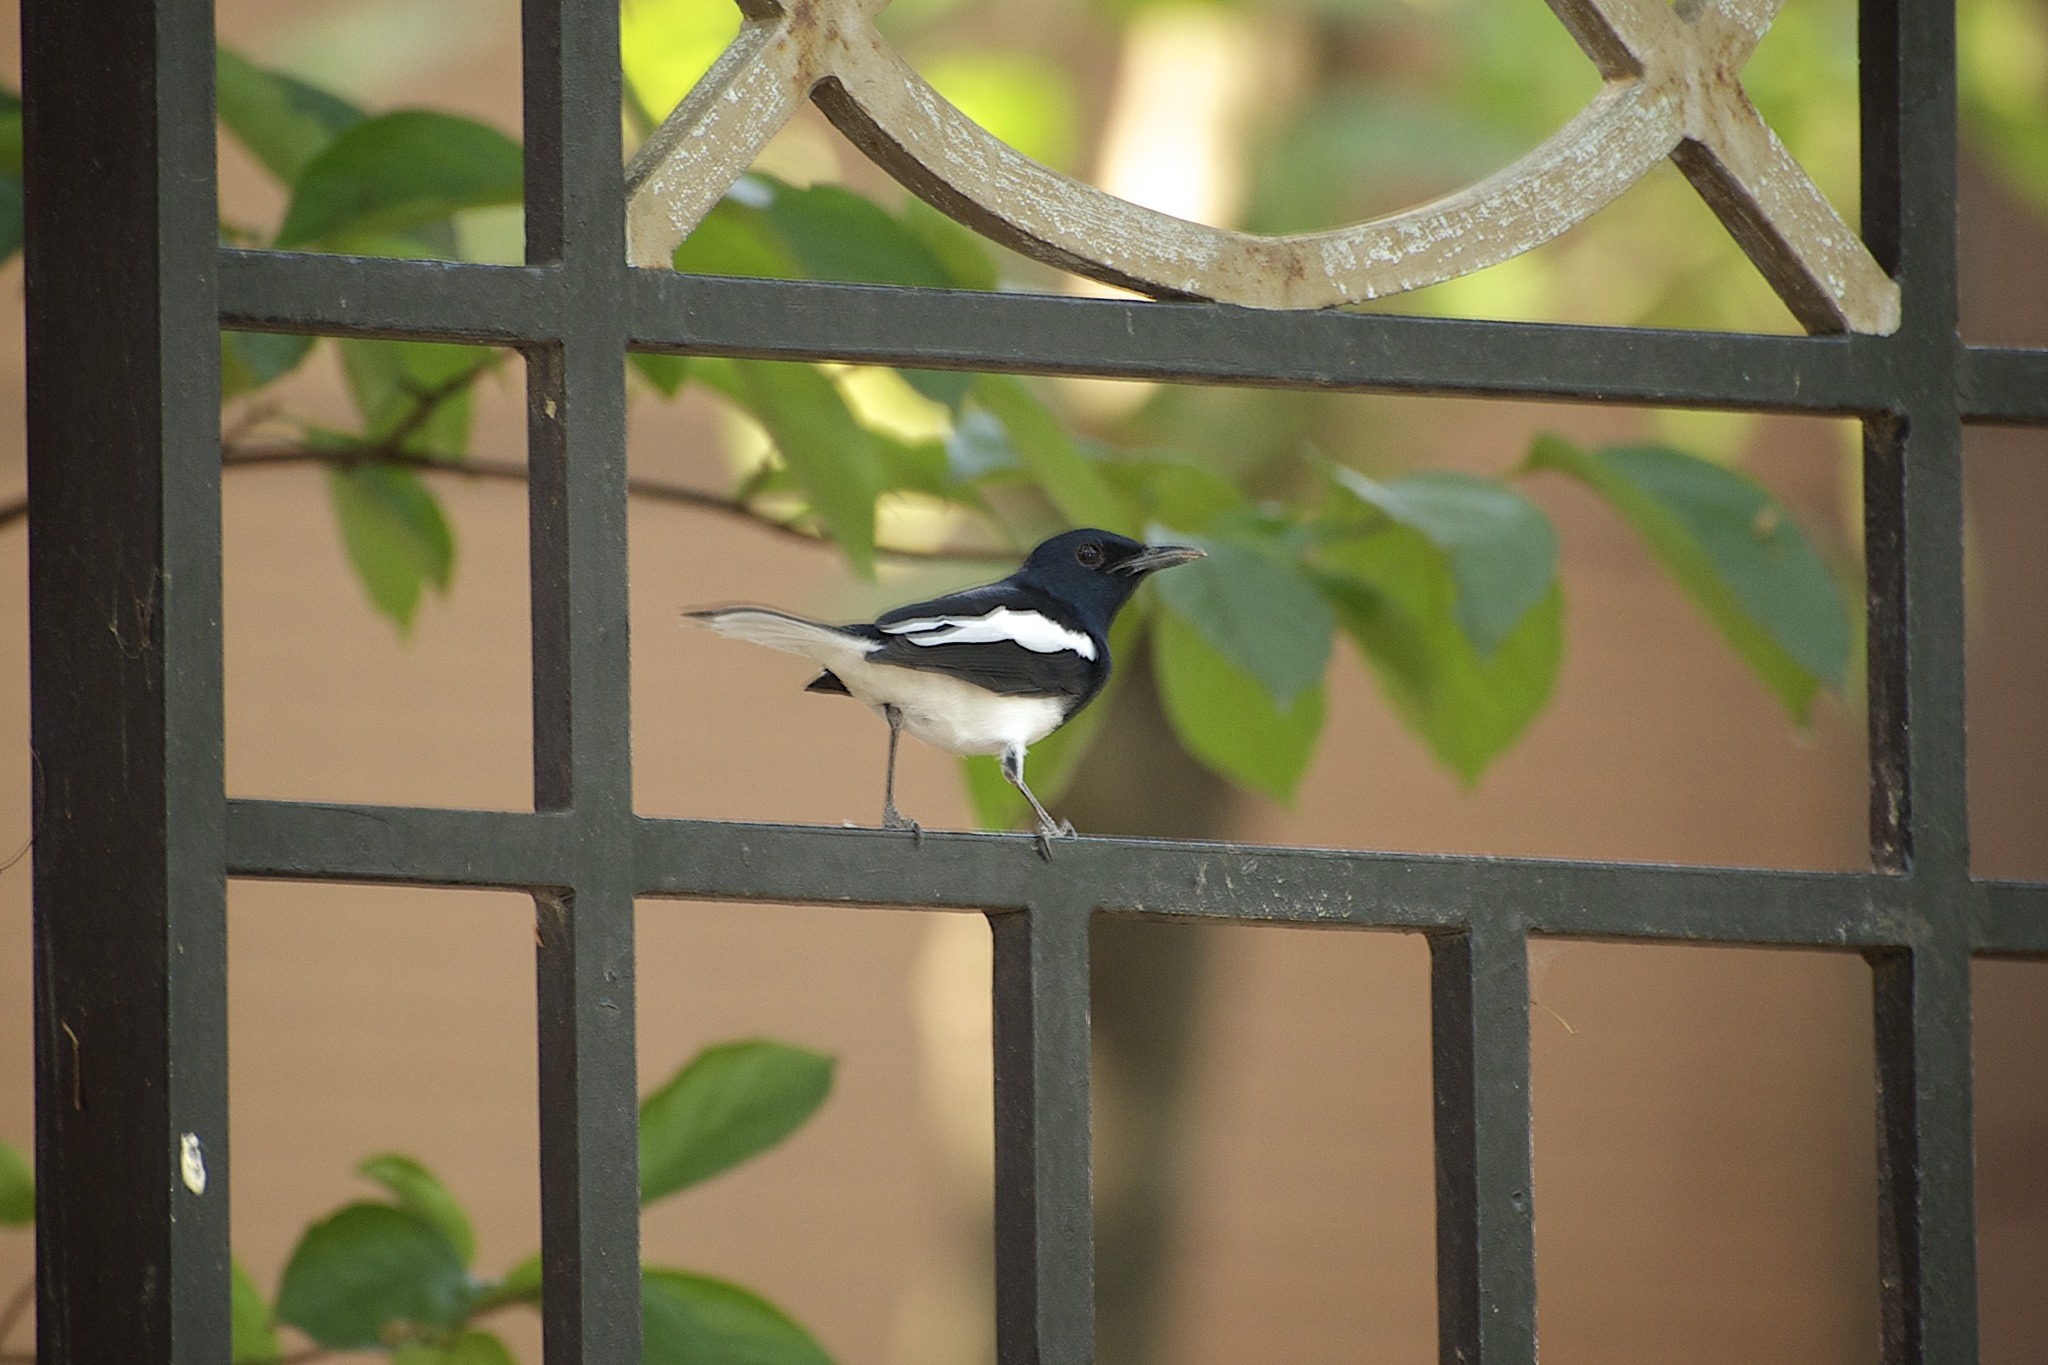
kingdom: Animalia
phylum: Chordata
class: Aves
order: Passeriformes
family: Muscicapidae
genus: Copsychus
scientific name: Copsychus saularis
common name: Oriental magpie-robin
